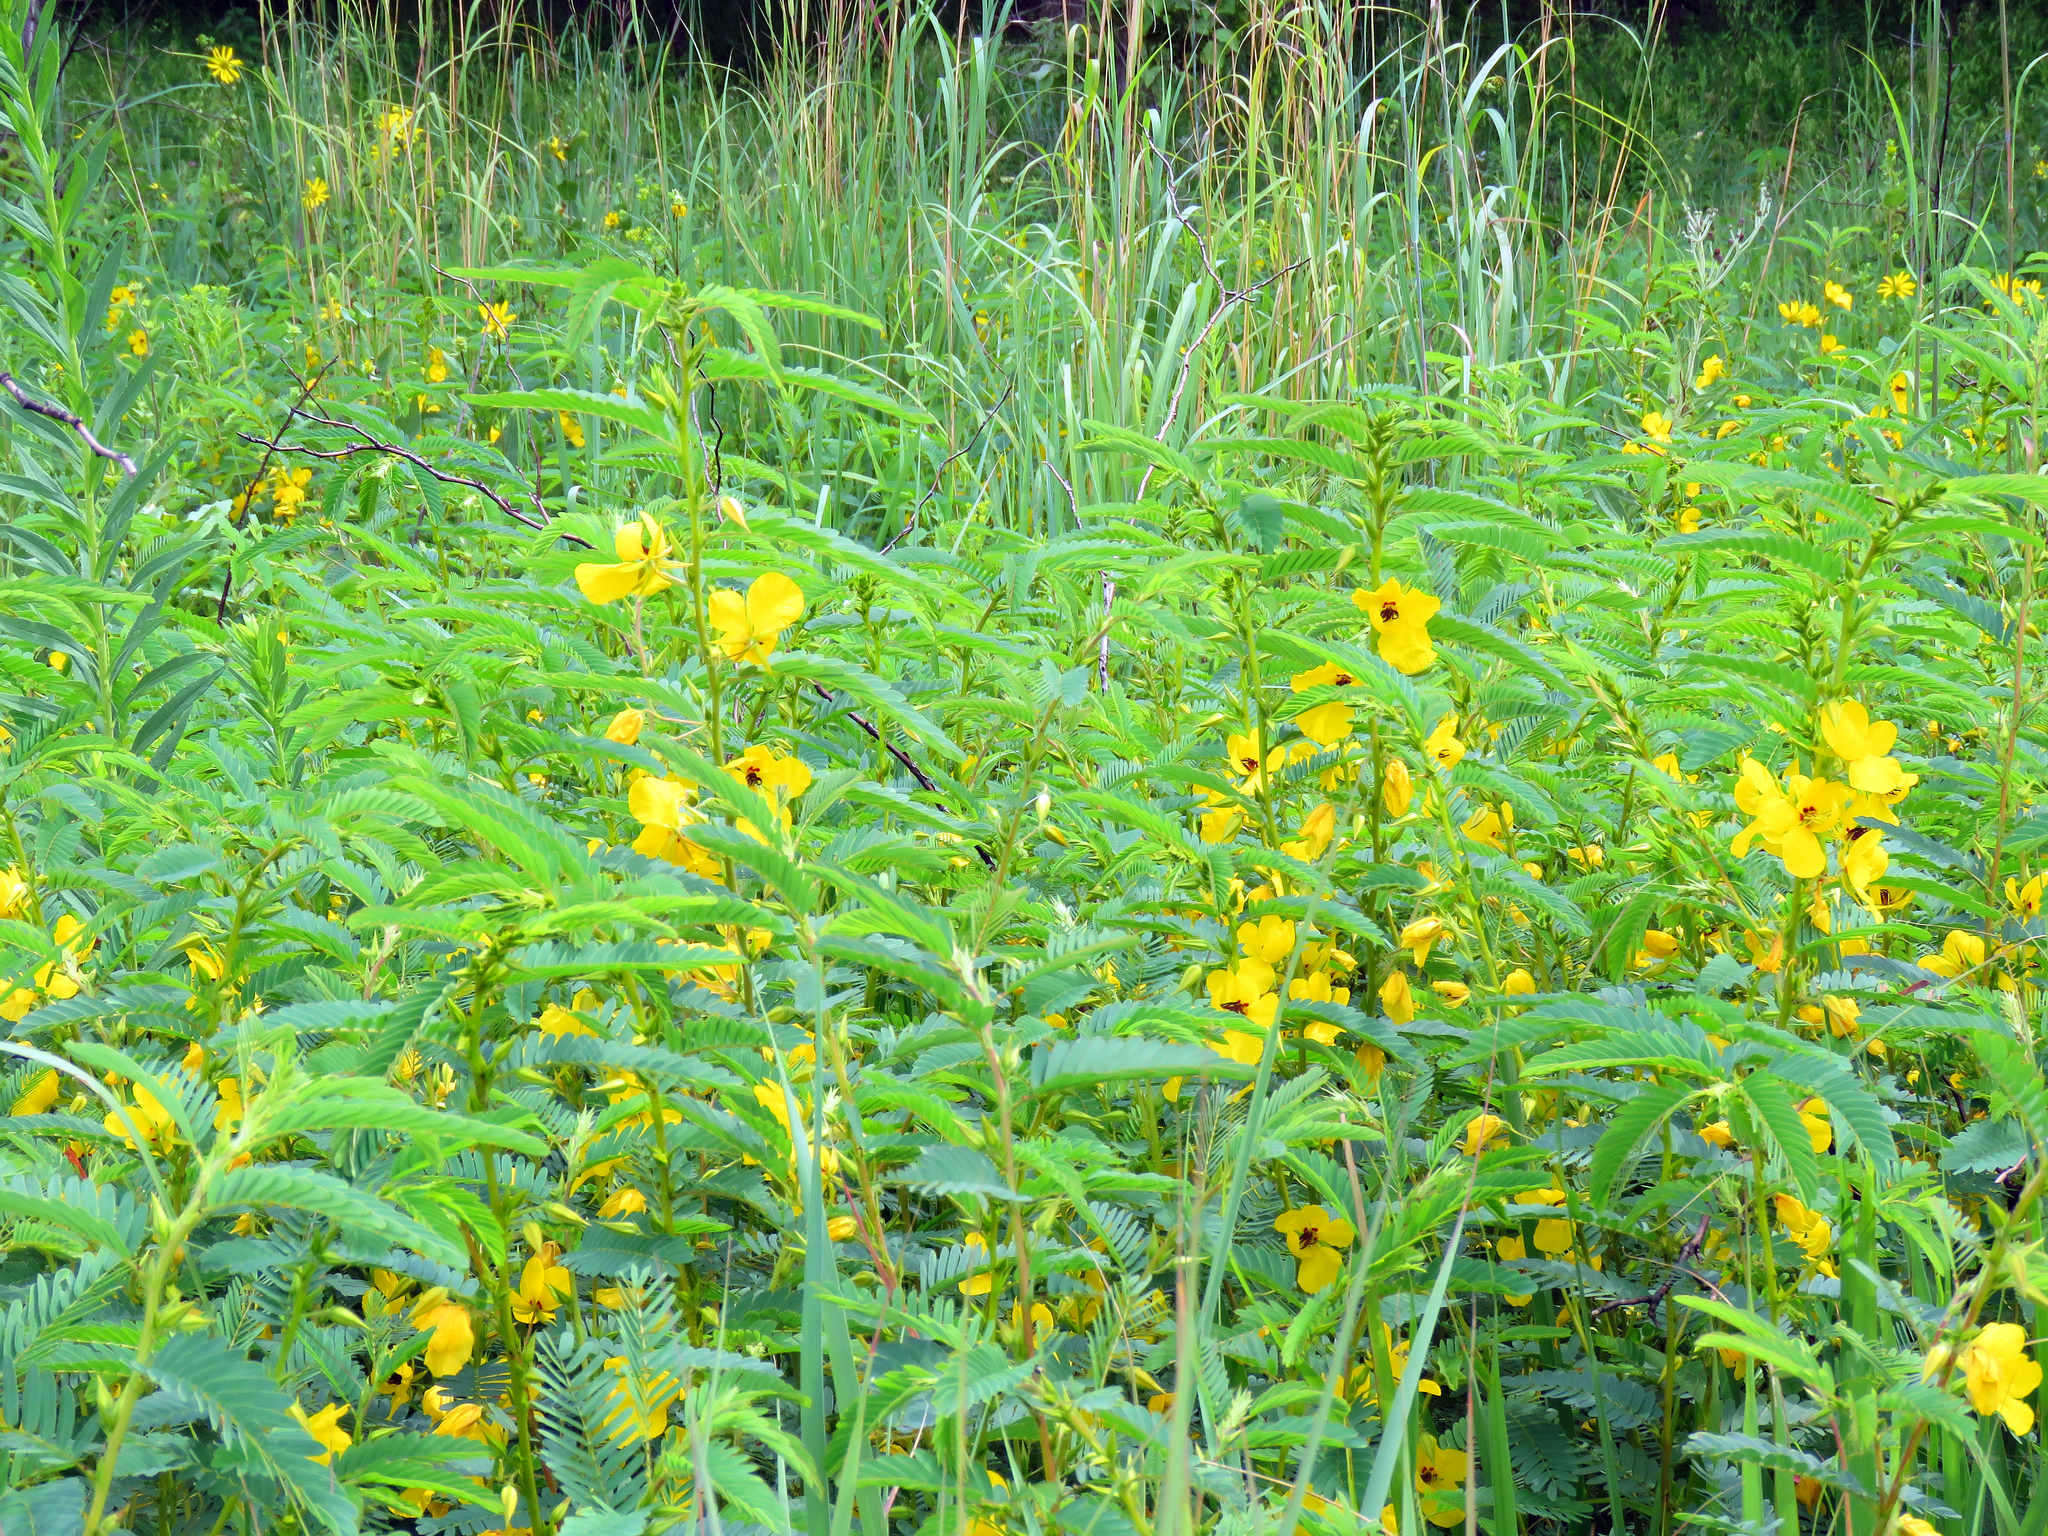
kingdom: Plantae
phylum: Tracheophyta
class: Magnoliopsida
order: Fabales
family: Fabaceae
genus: Chamaecrista
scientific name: Chamaecrista fasciculata
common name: Golden cassia
